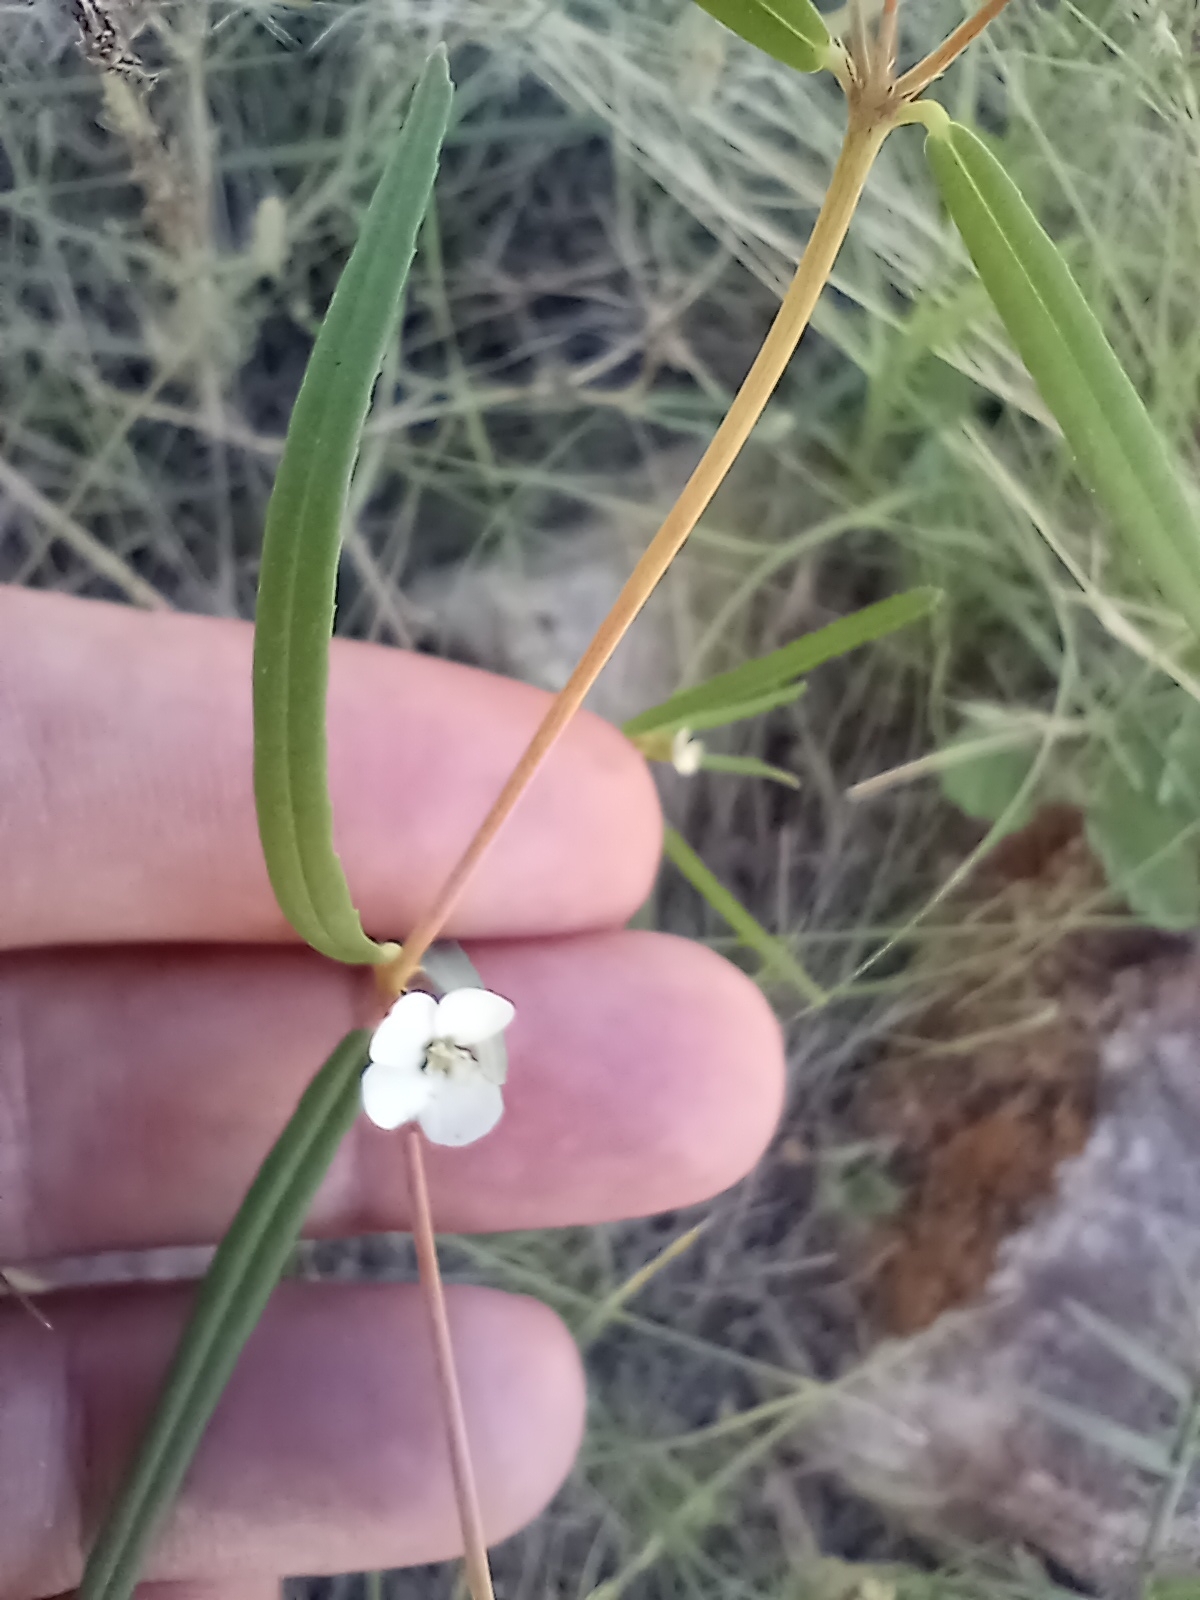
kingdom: Plantae
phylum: Tracheophyta
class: Magnoliopsida
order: Malpighiales
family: Euphorbiaceae
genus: Euphorbia
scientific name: Euphorbia florida
